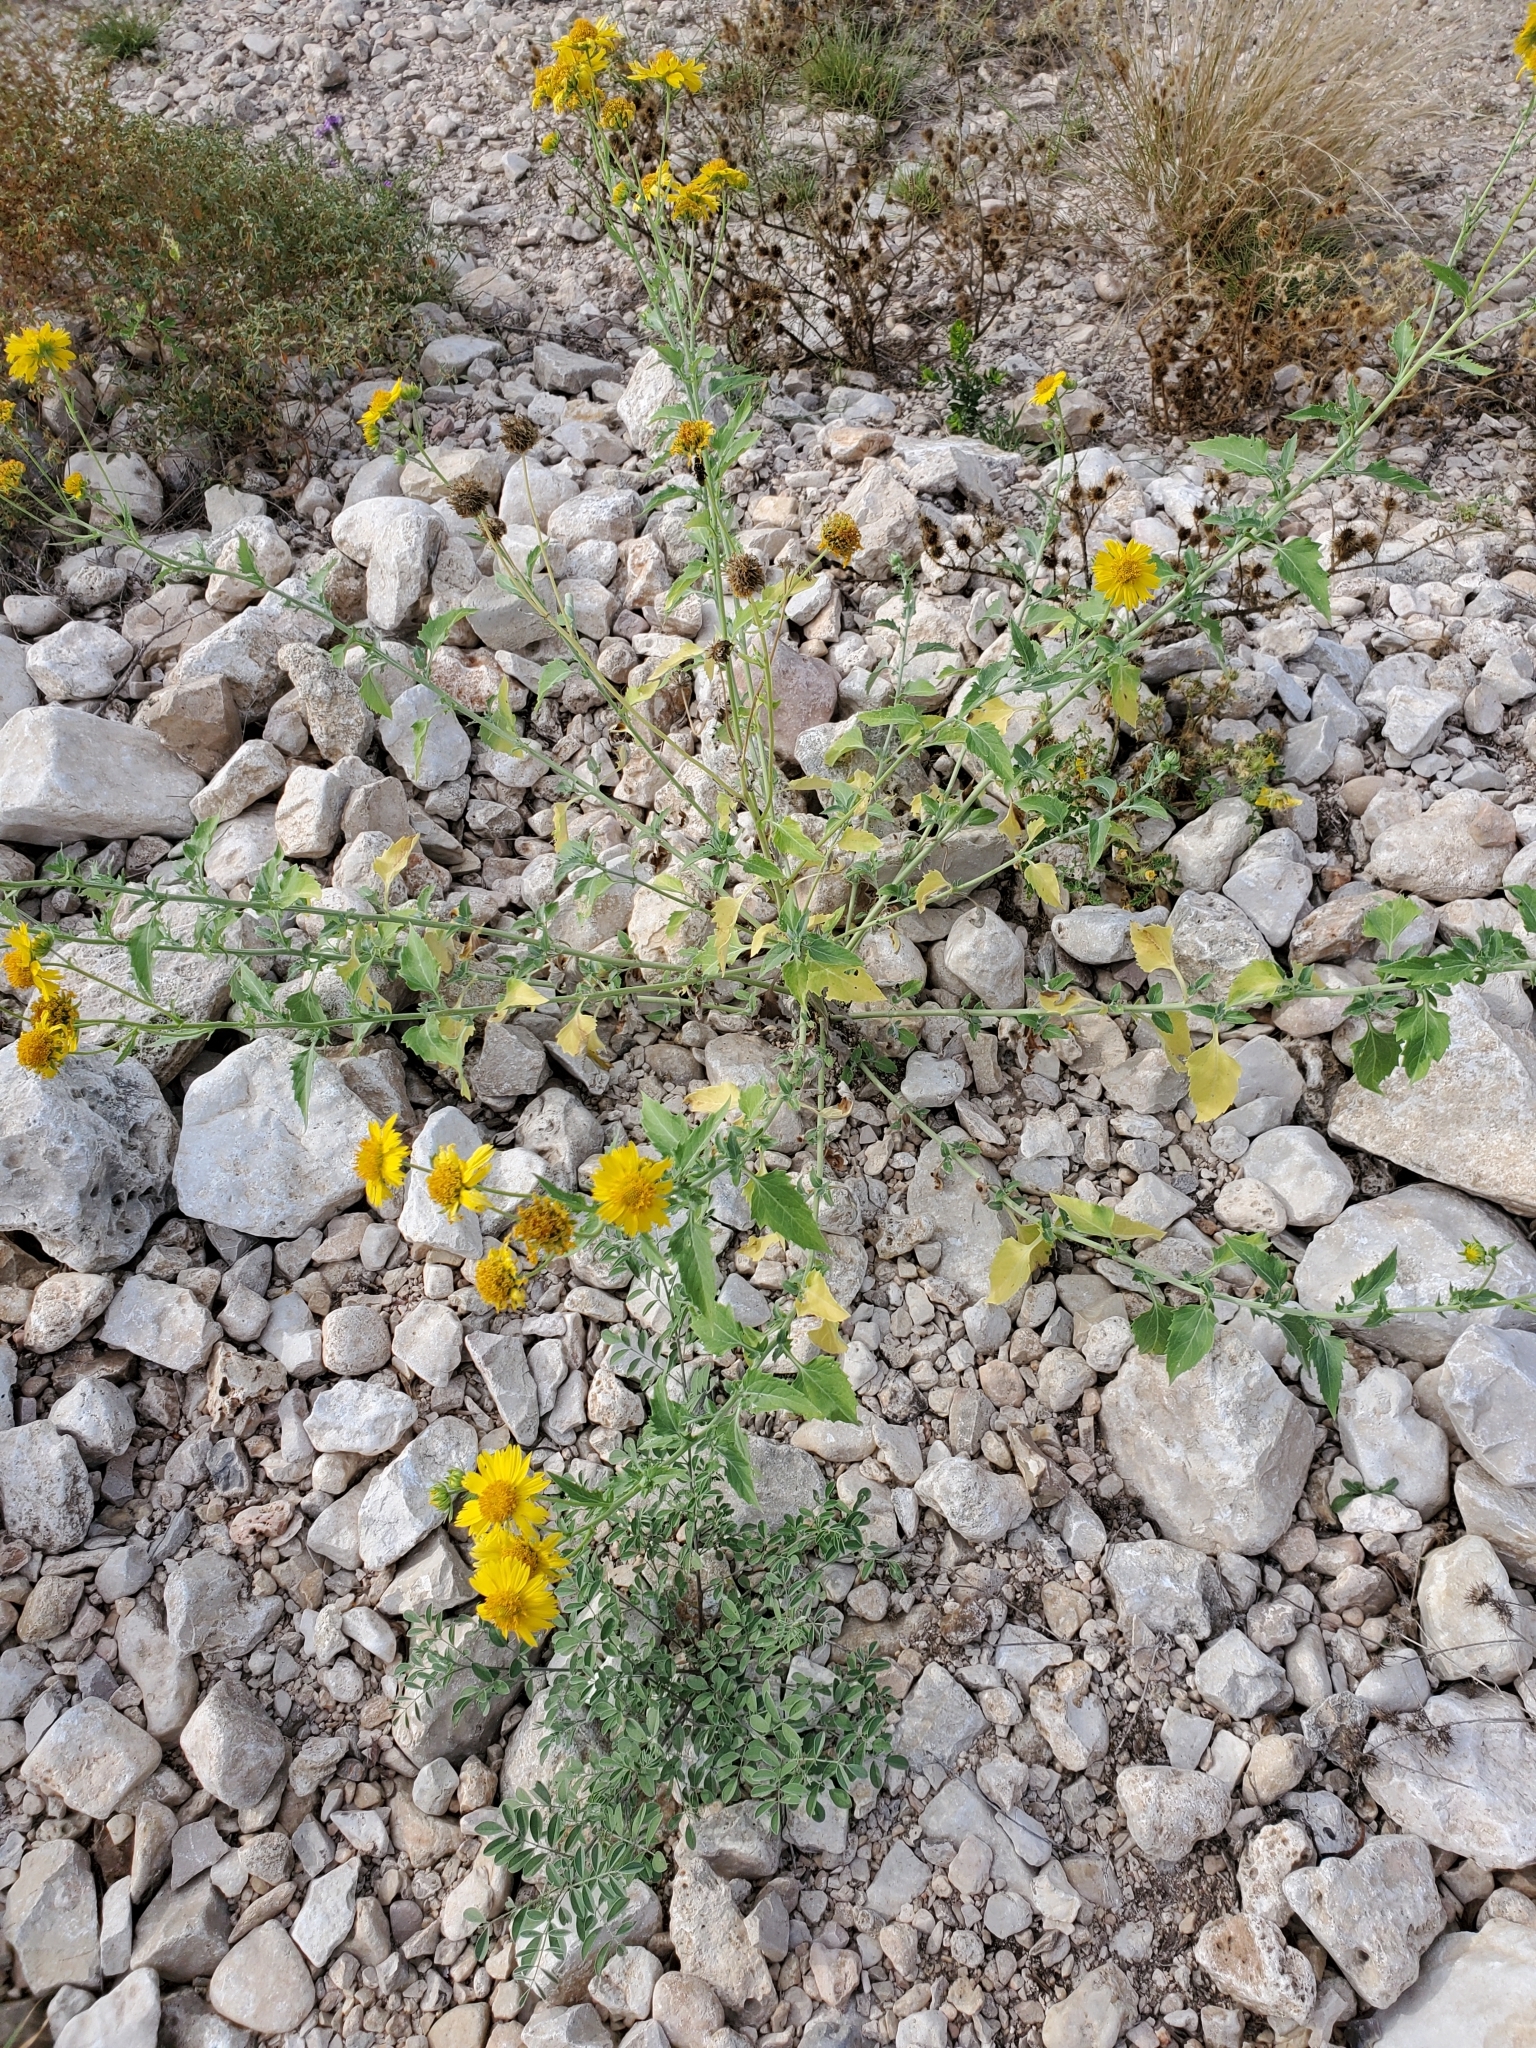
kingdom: Plantae
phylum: Tracheophyta
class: Magnoliopsida
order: Asterales
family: Asteraceae
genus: Verbesina
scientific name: Verbesina encelioides
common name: Golden crownbeard
